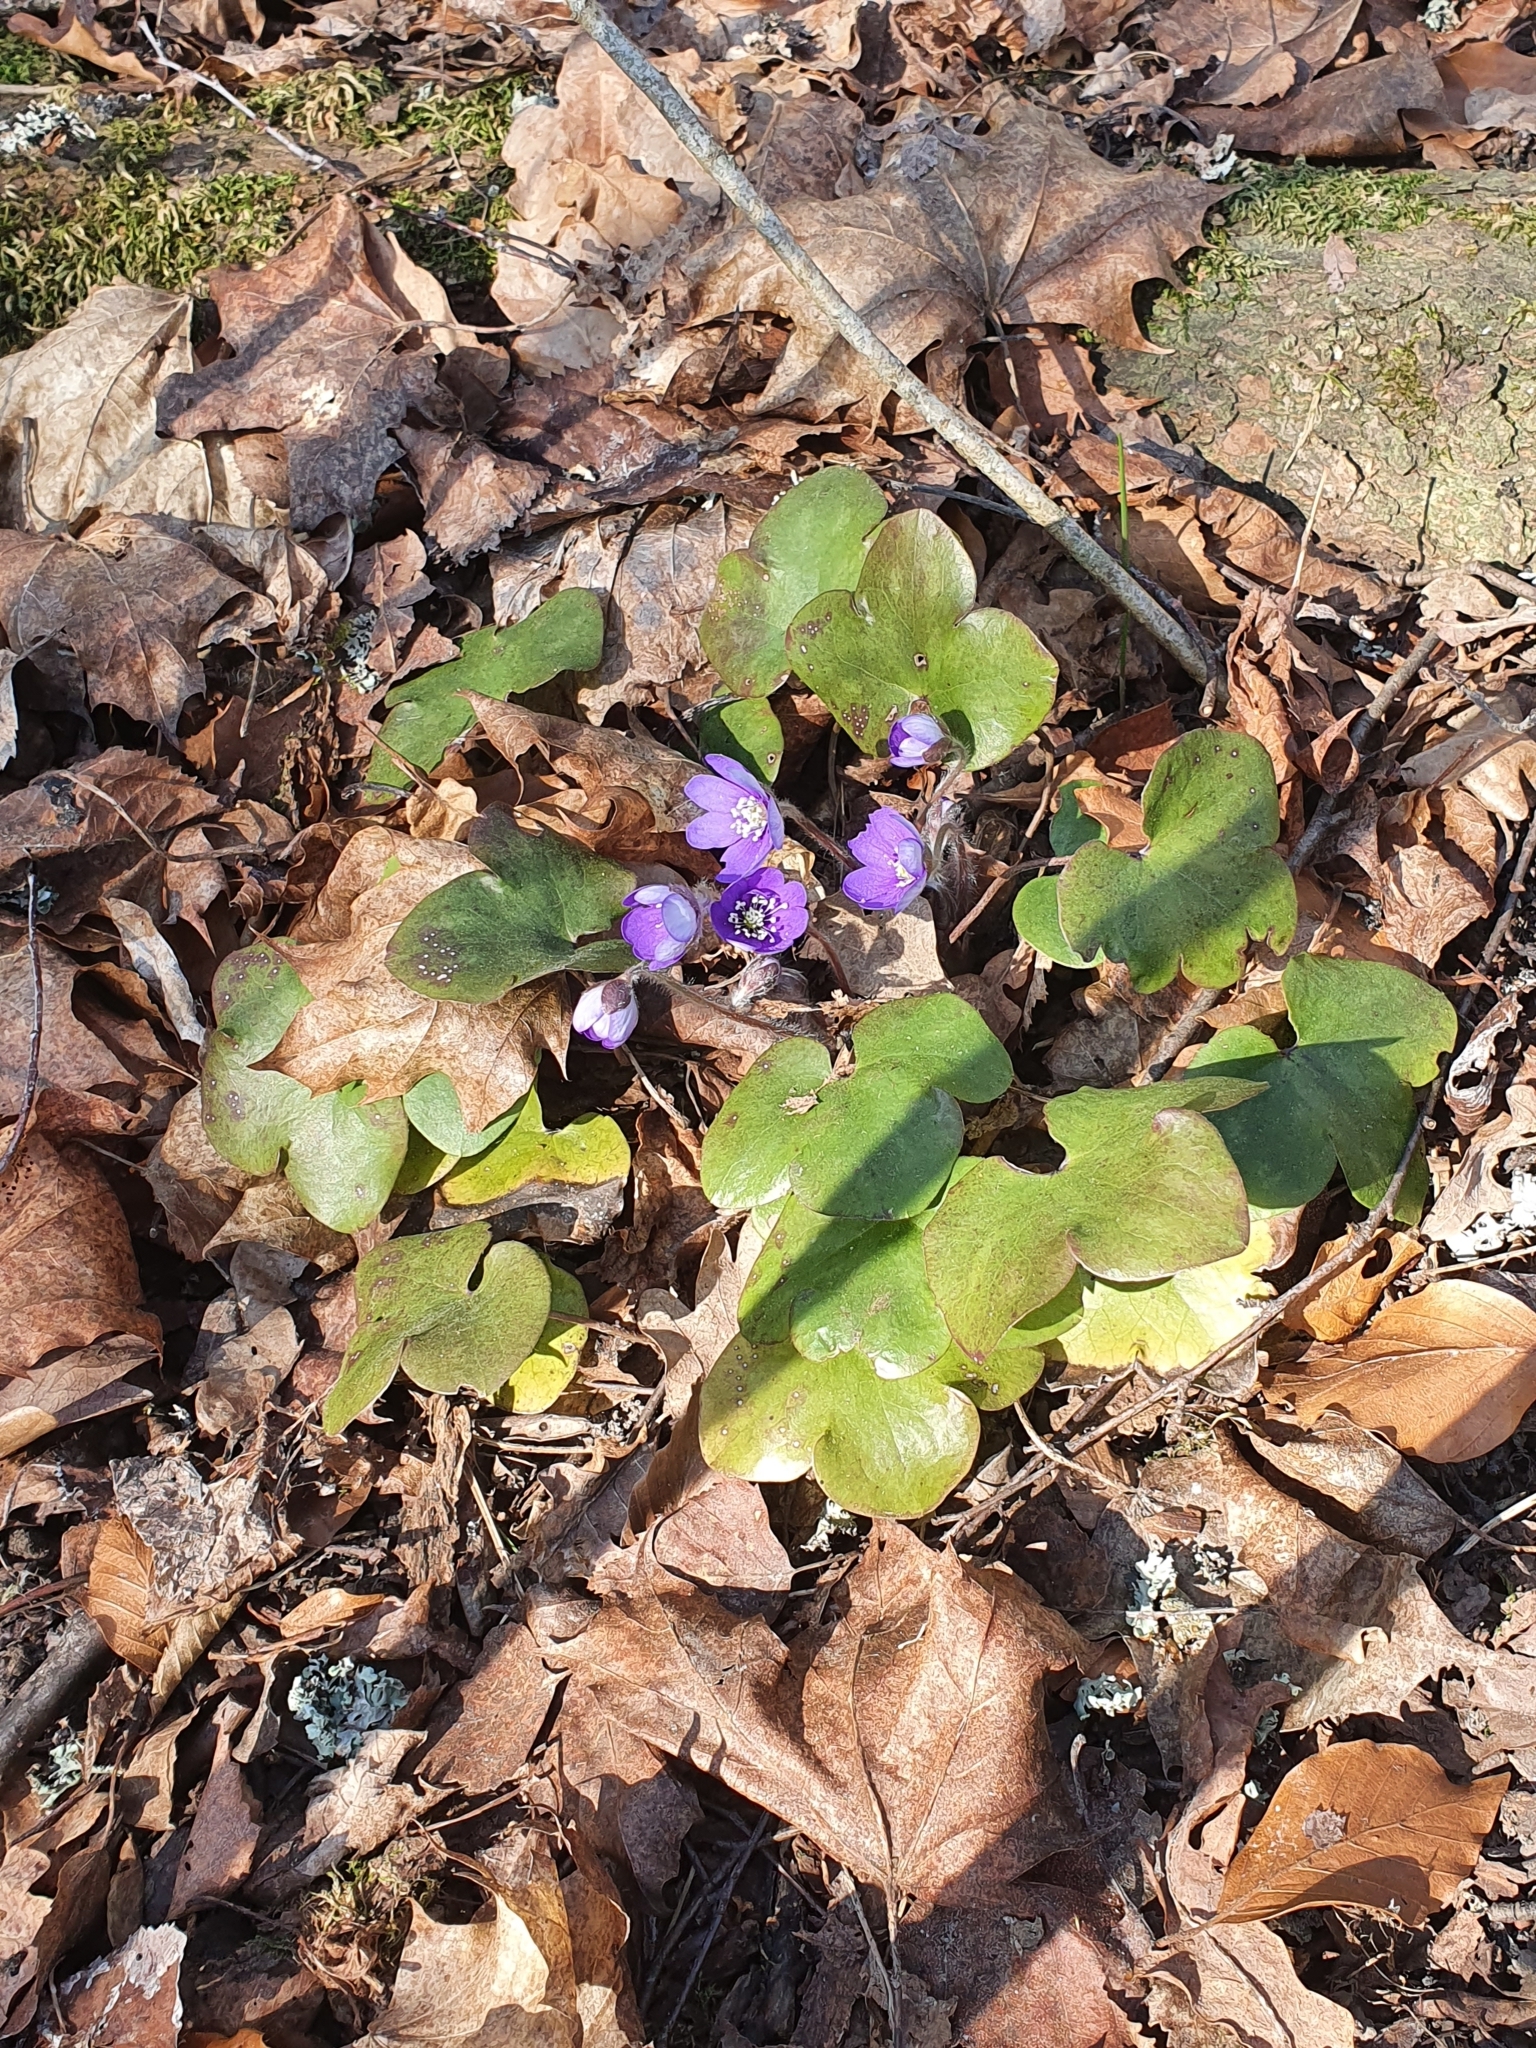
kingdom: Plantae
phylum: Tracheophyta
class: Magnoliopsida
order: Ranunculales
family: Ranunculaceae
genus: Hepatica
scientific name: Hepatica nobilis
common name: Liverleaf
